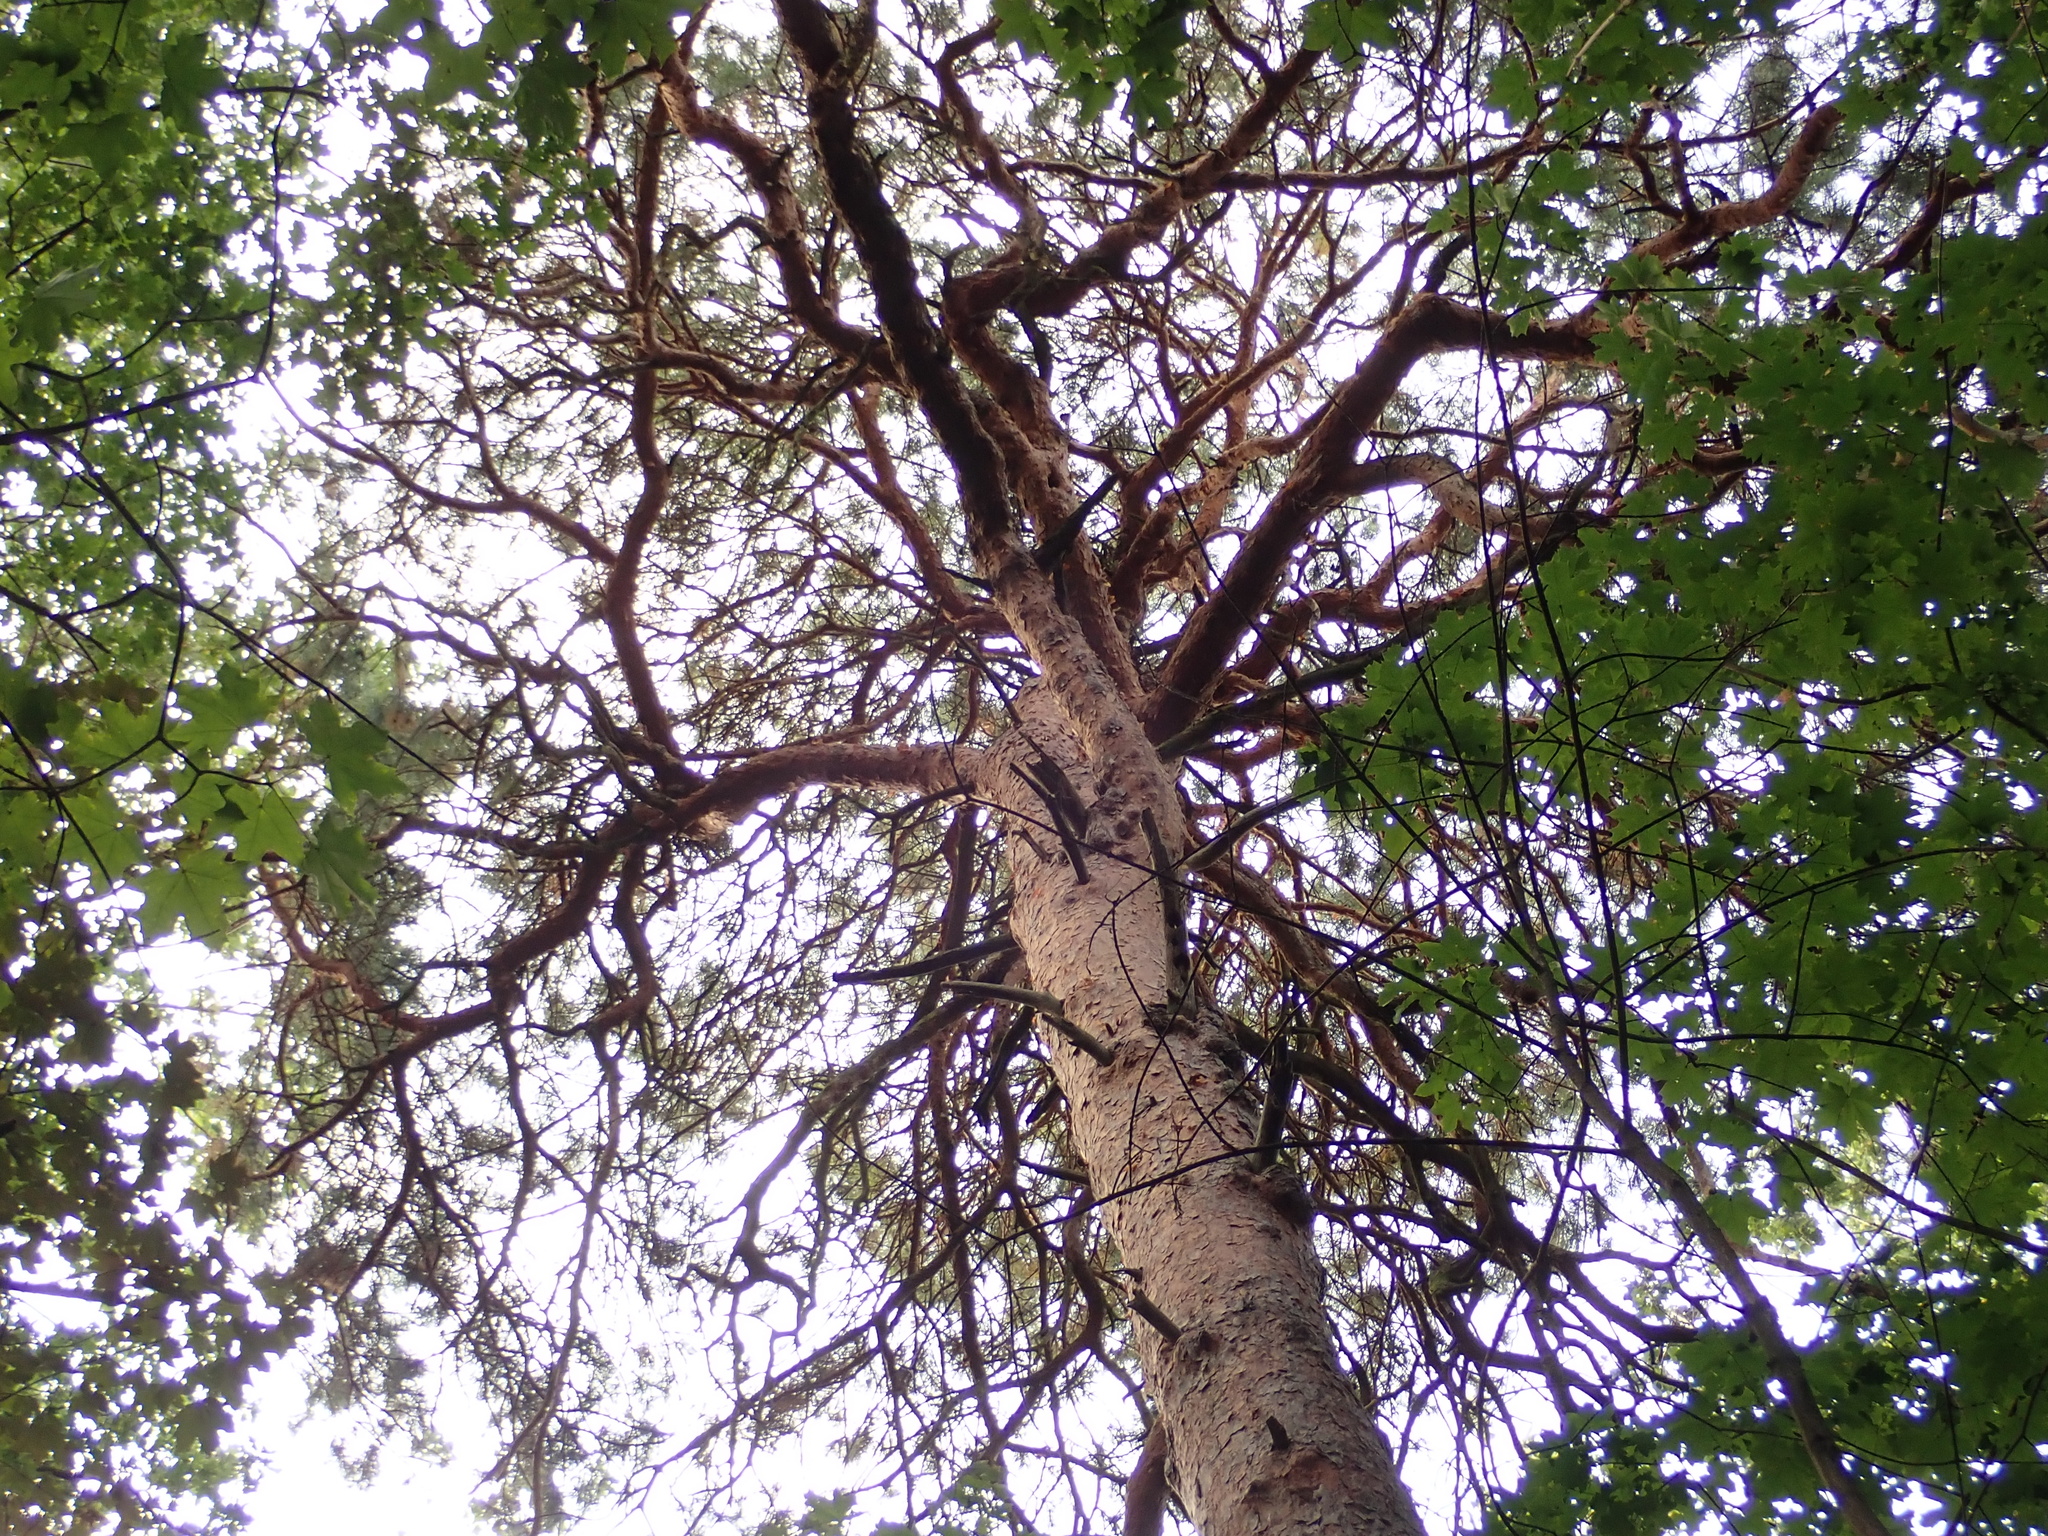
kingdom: Plantae
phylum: Tracheophyta
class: Pinopsida
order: Pinales
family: Pinaceae
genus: Pinus
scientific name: Pinus sylvestris
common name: Scots pine
